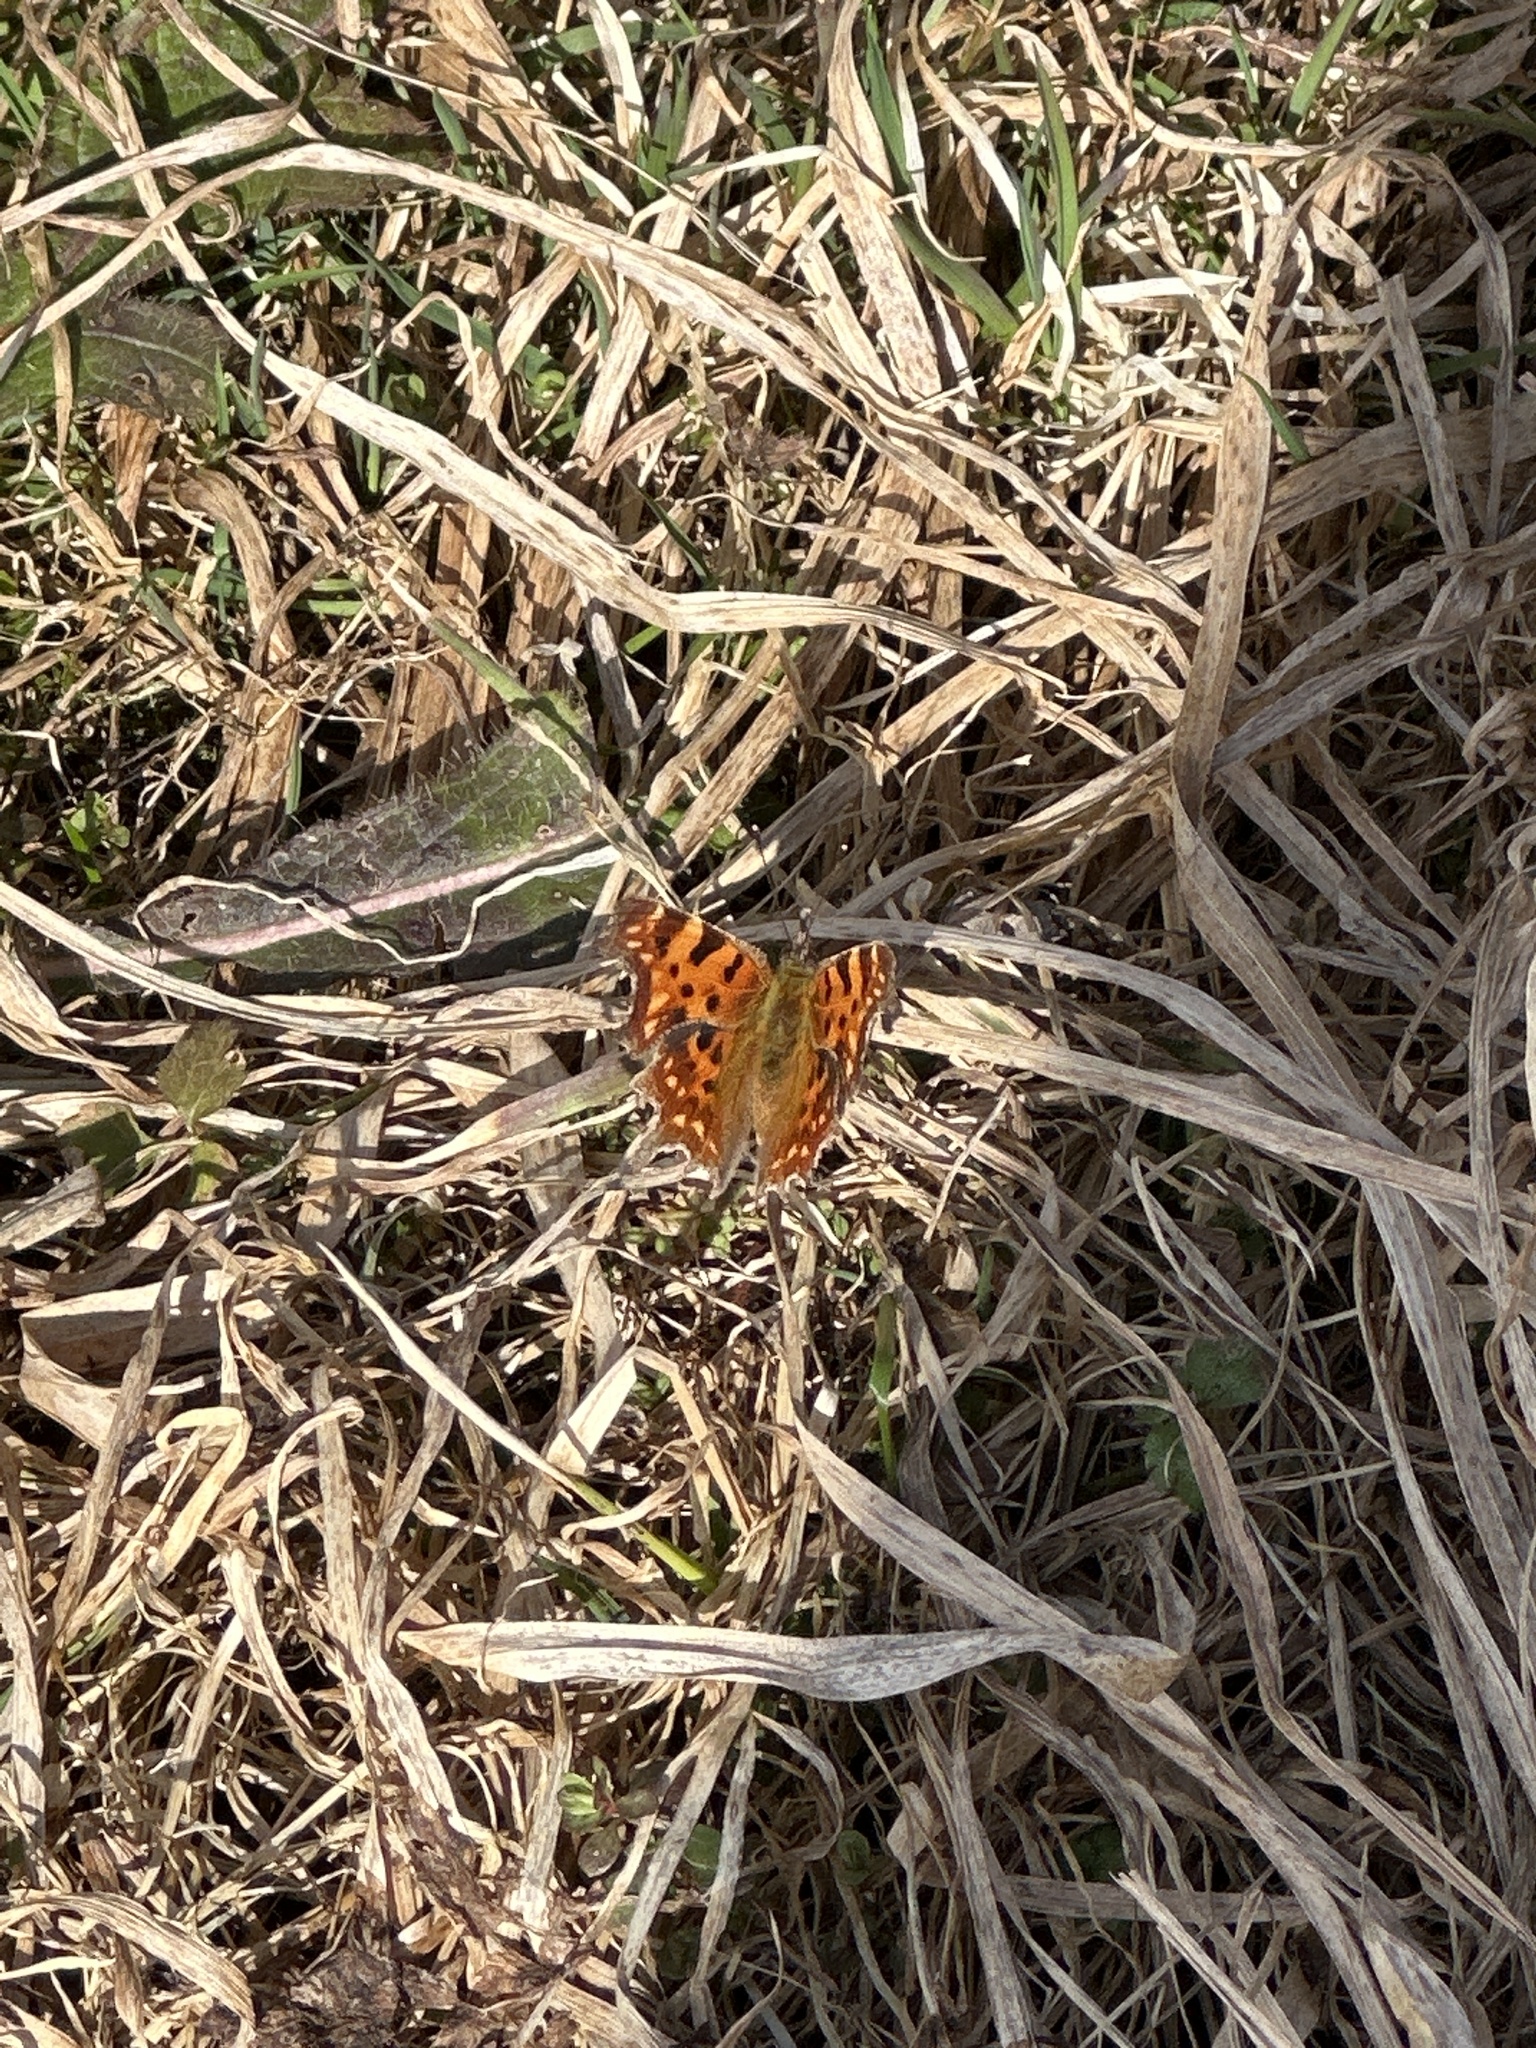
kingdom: Animalia
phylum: Arthropoda
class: Insecta
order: Lepidoptera
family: Nymphalidae
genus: Polygonia
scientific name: Polygonia c-album
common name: Comma
